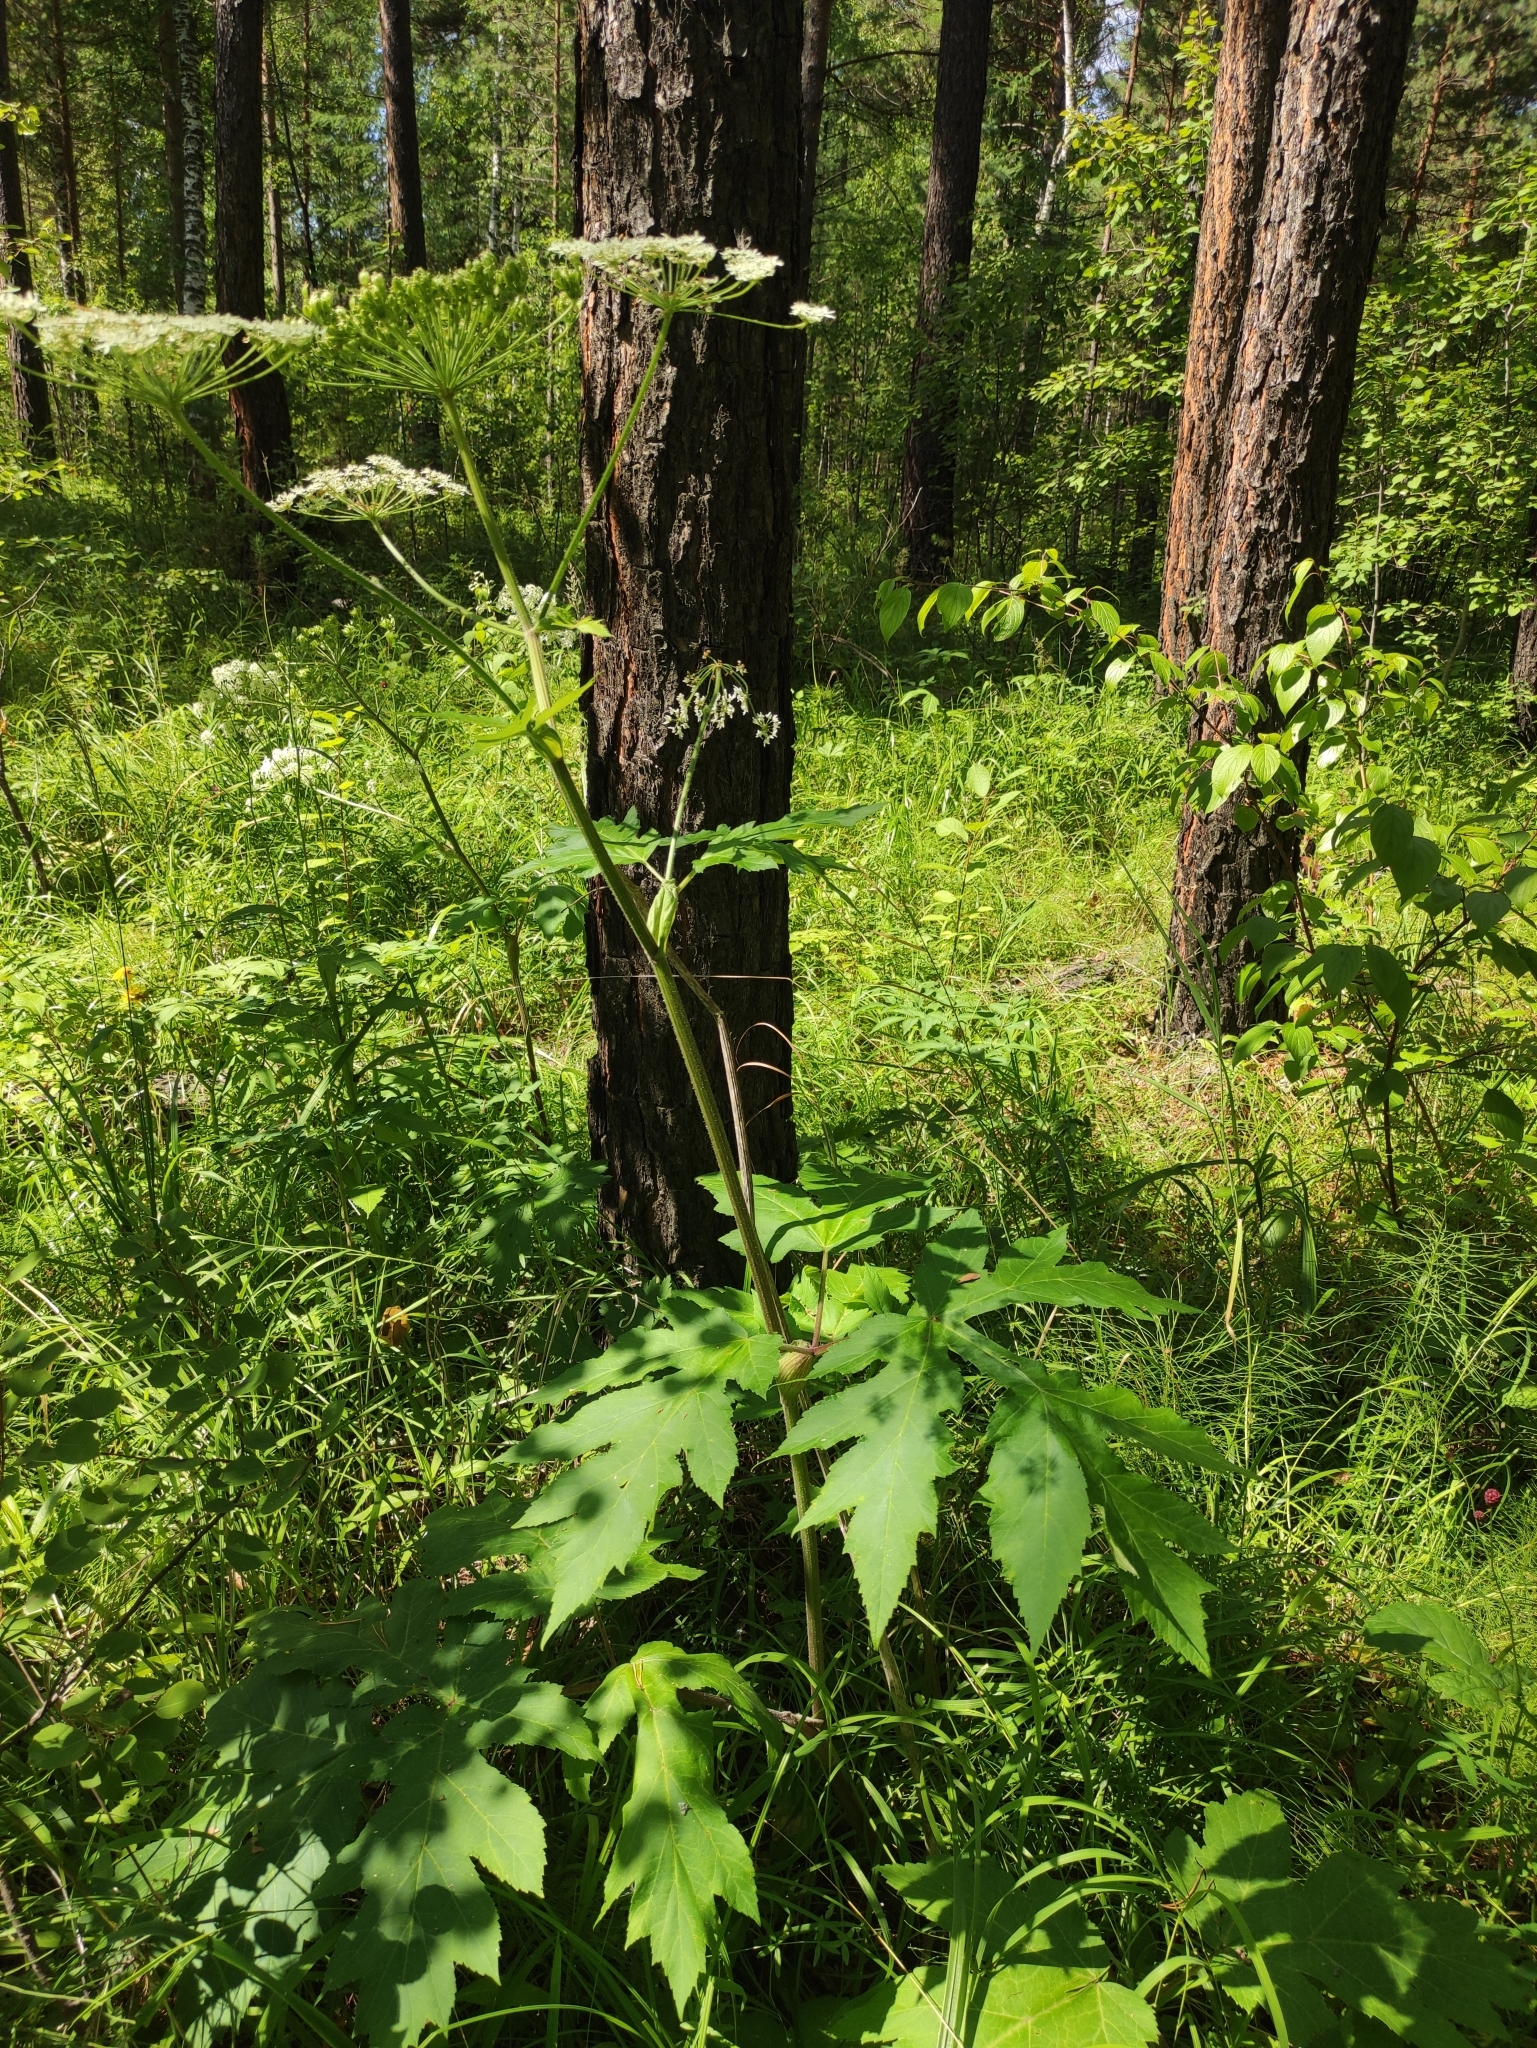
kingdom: Plantae
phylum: Tracheophyta
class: Magnoliopsida
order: Apiales
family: Apiaceae
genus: Heracleum
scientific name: Heracleum dissectum
